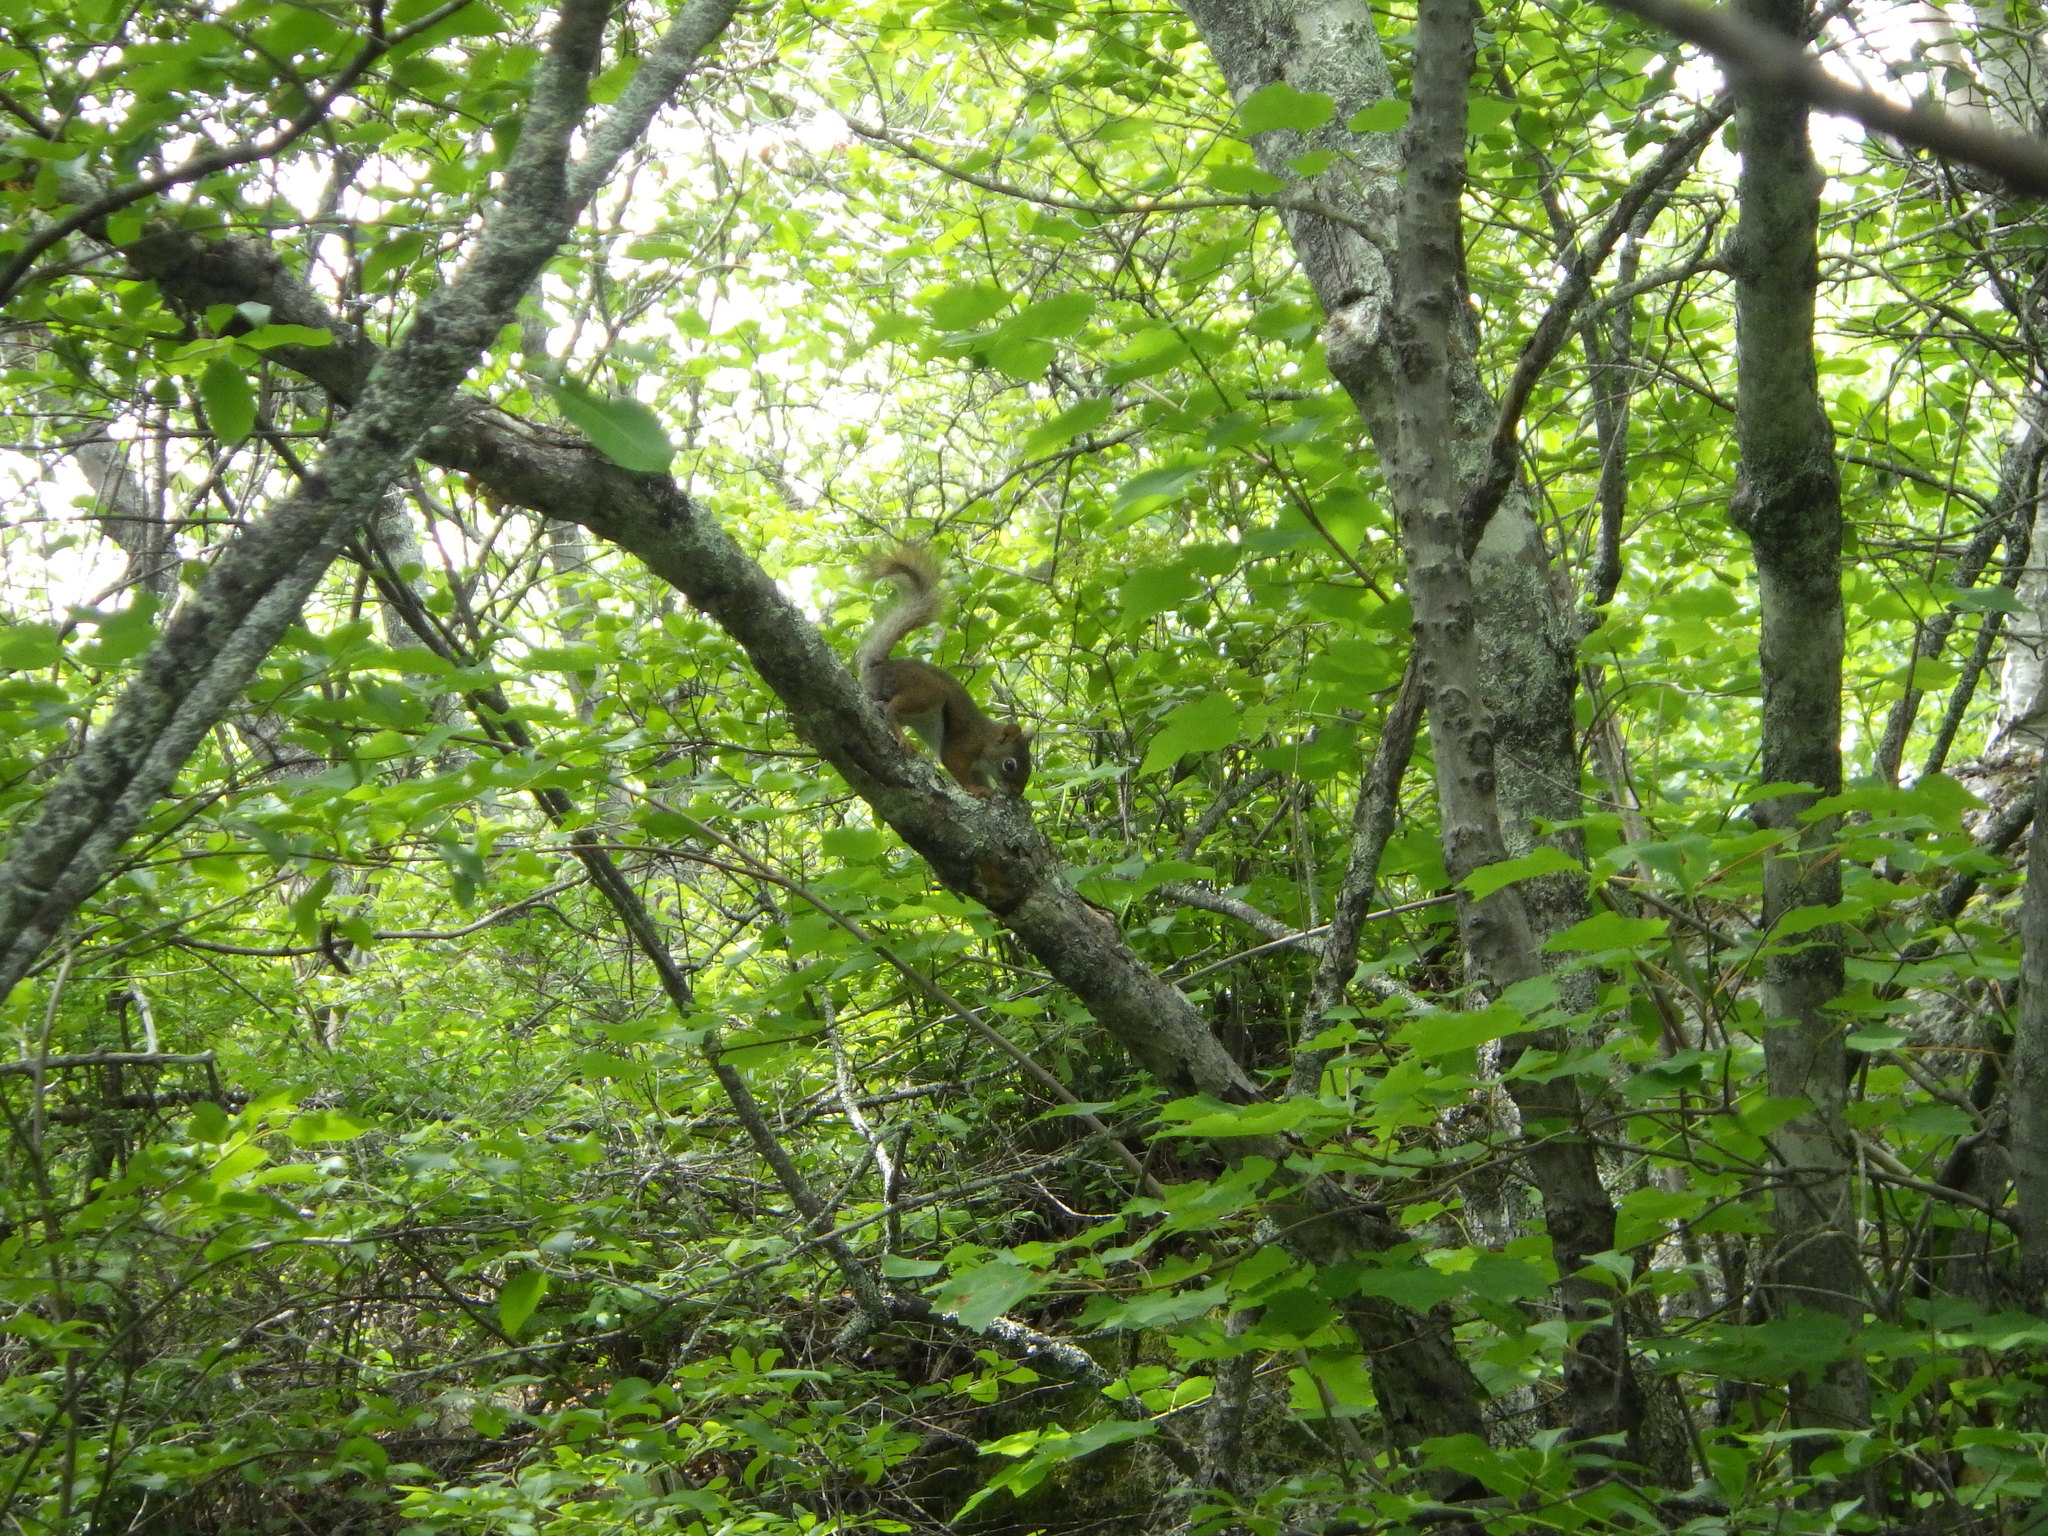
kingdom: Animalia
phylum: Chordata
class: Mammalia
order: Rodentia
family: Sciuridae
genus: Tamiasciurus
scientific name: Tamiasciurus hudsonicus
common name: Red squirrel
